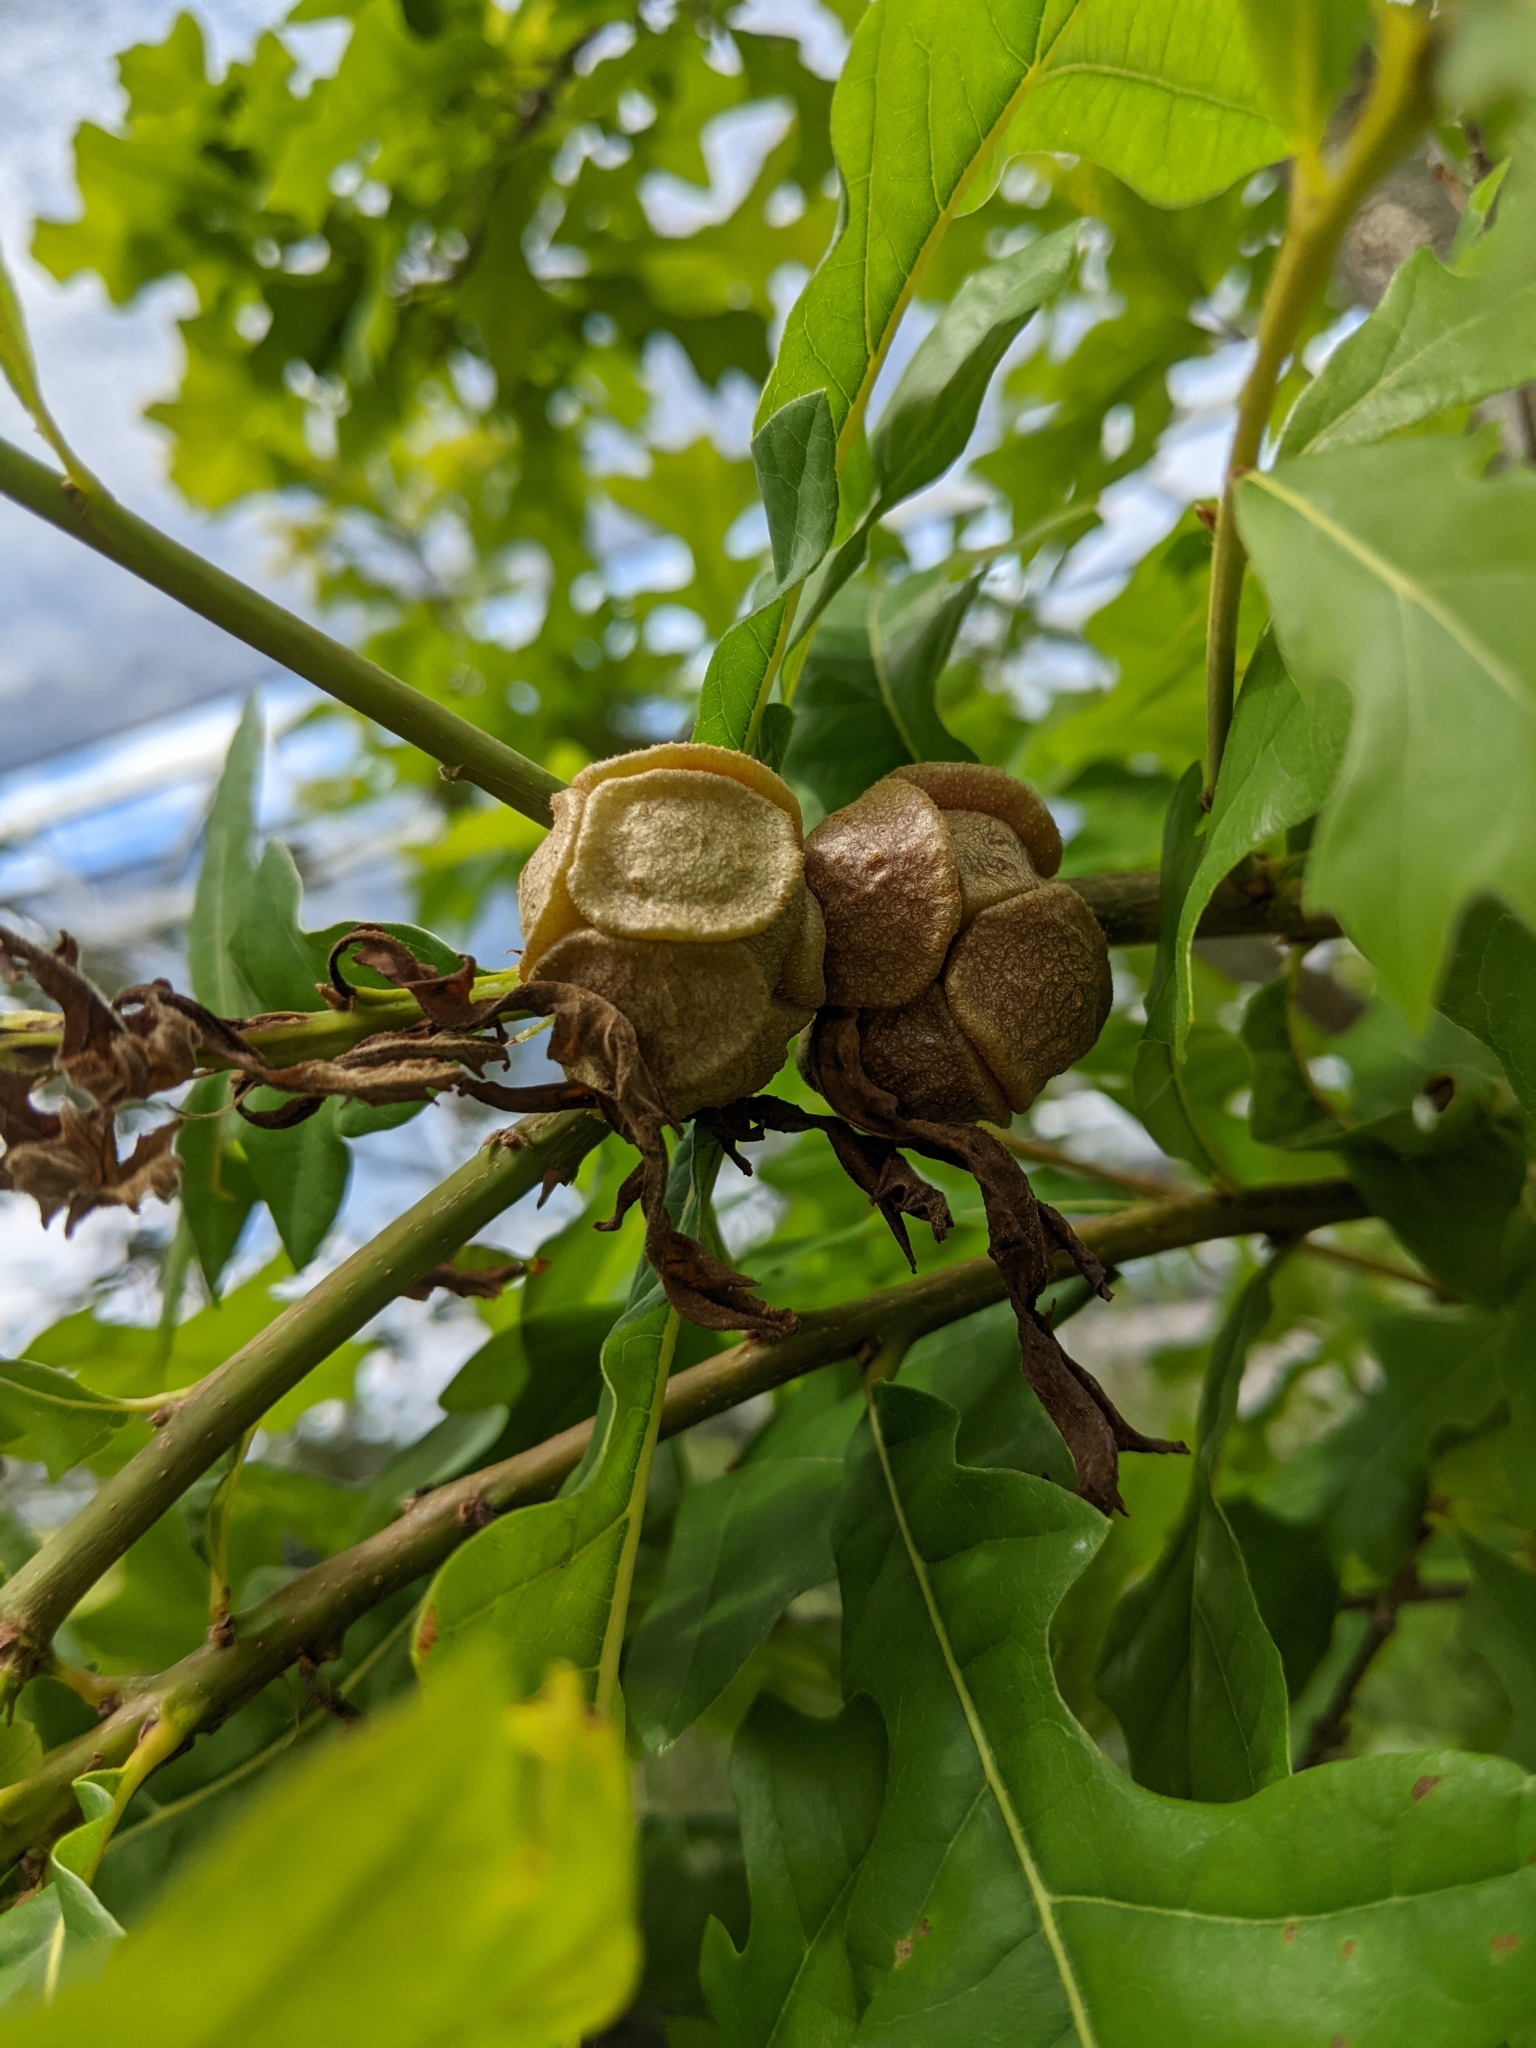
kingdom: Animalia
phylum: Arthropoda
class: Insecta
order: Hymenoptera
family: Cynipidae
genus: Andricus
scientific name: Andricus
